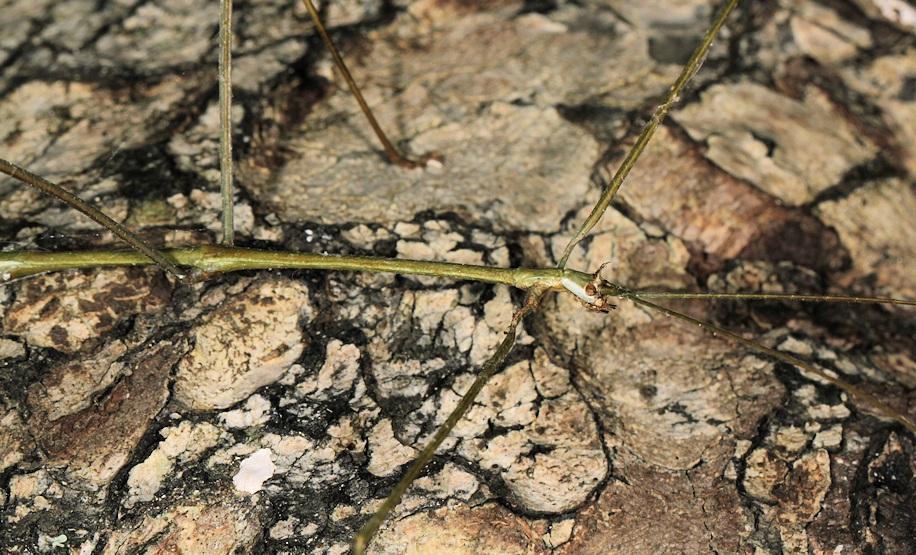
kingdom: Animalia
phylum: Arthropoda
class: Insecta
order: Phasmida
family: Diapheromeridae
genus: Bactricia
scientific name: Bactricia bituberculata
